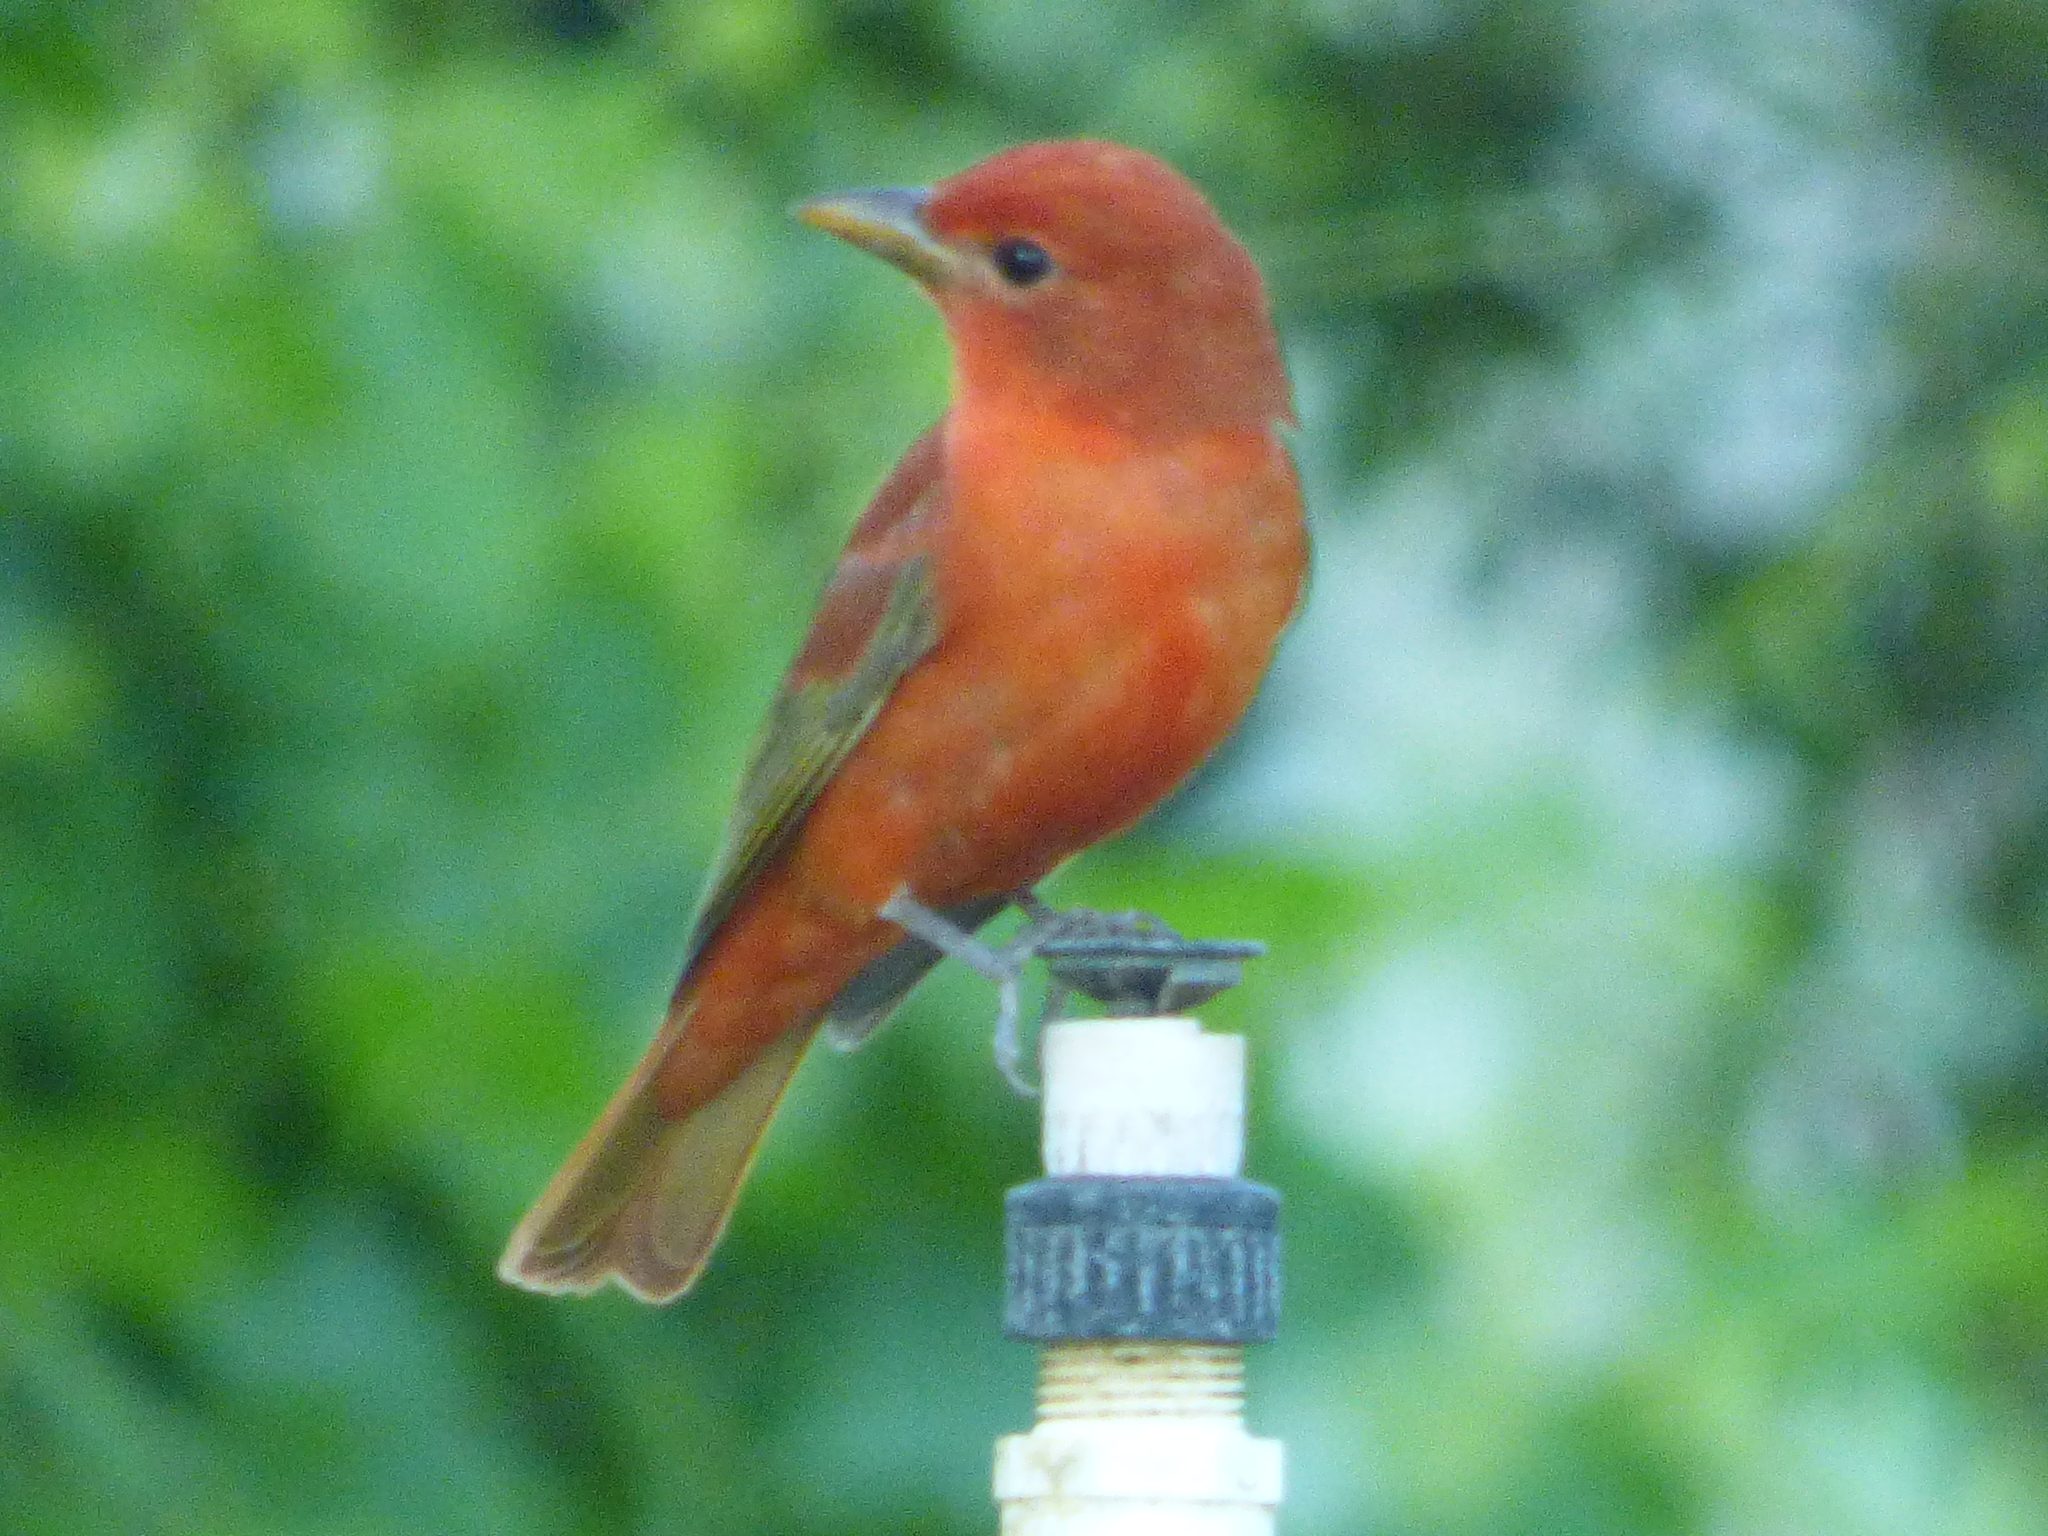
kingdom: Animalia
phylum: Chordata
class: Aves
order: Passeriformes
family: Cardinalidae
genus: Piranga
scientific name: Piranga rubra
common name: Summer tanager
